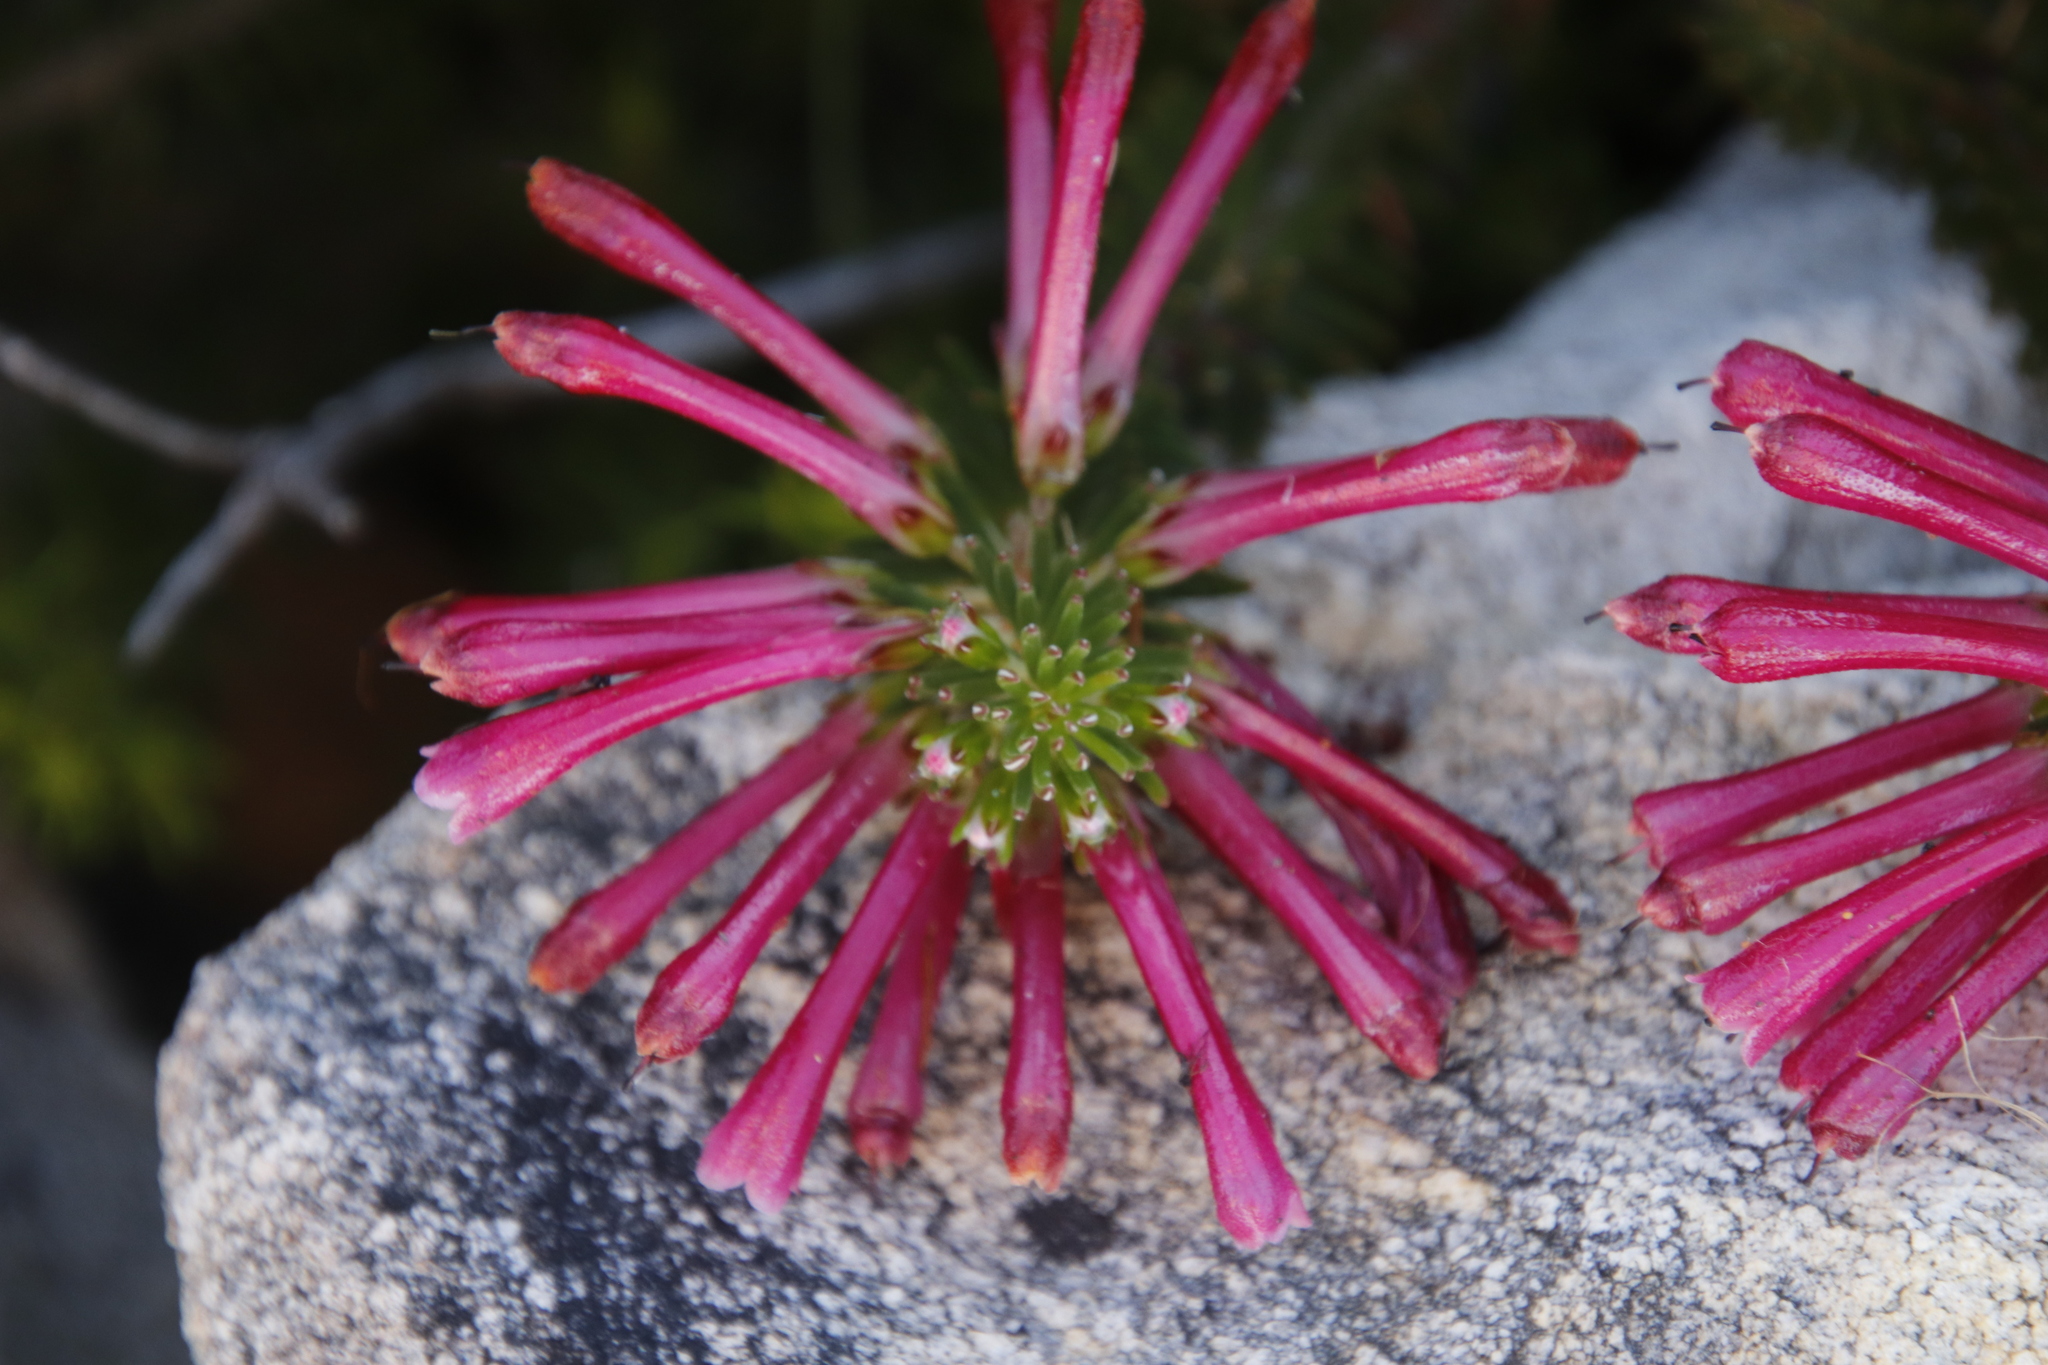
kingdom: Plantae
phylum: Tracheophyta
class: Magnoliopsida
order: Ericales
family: Ericaceae
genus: Erica
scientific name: Erica thomae
